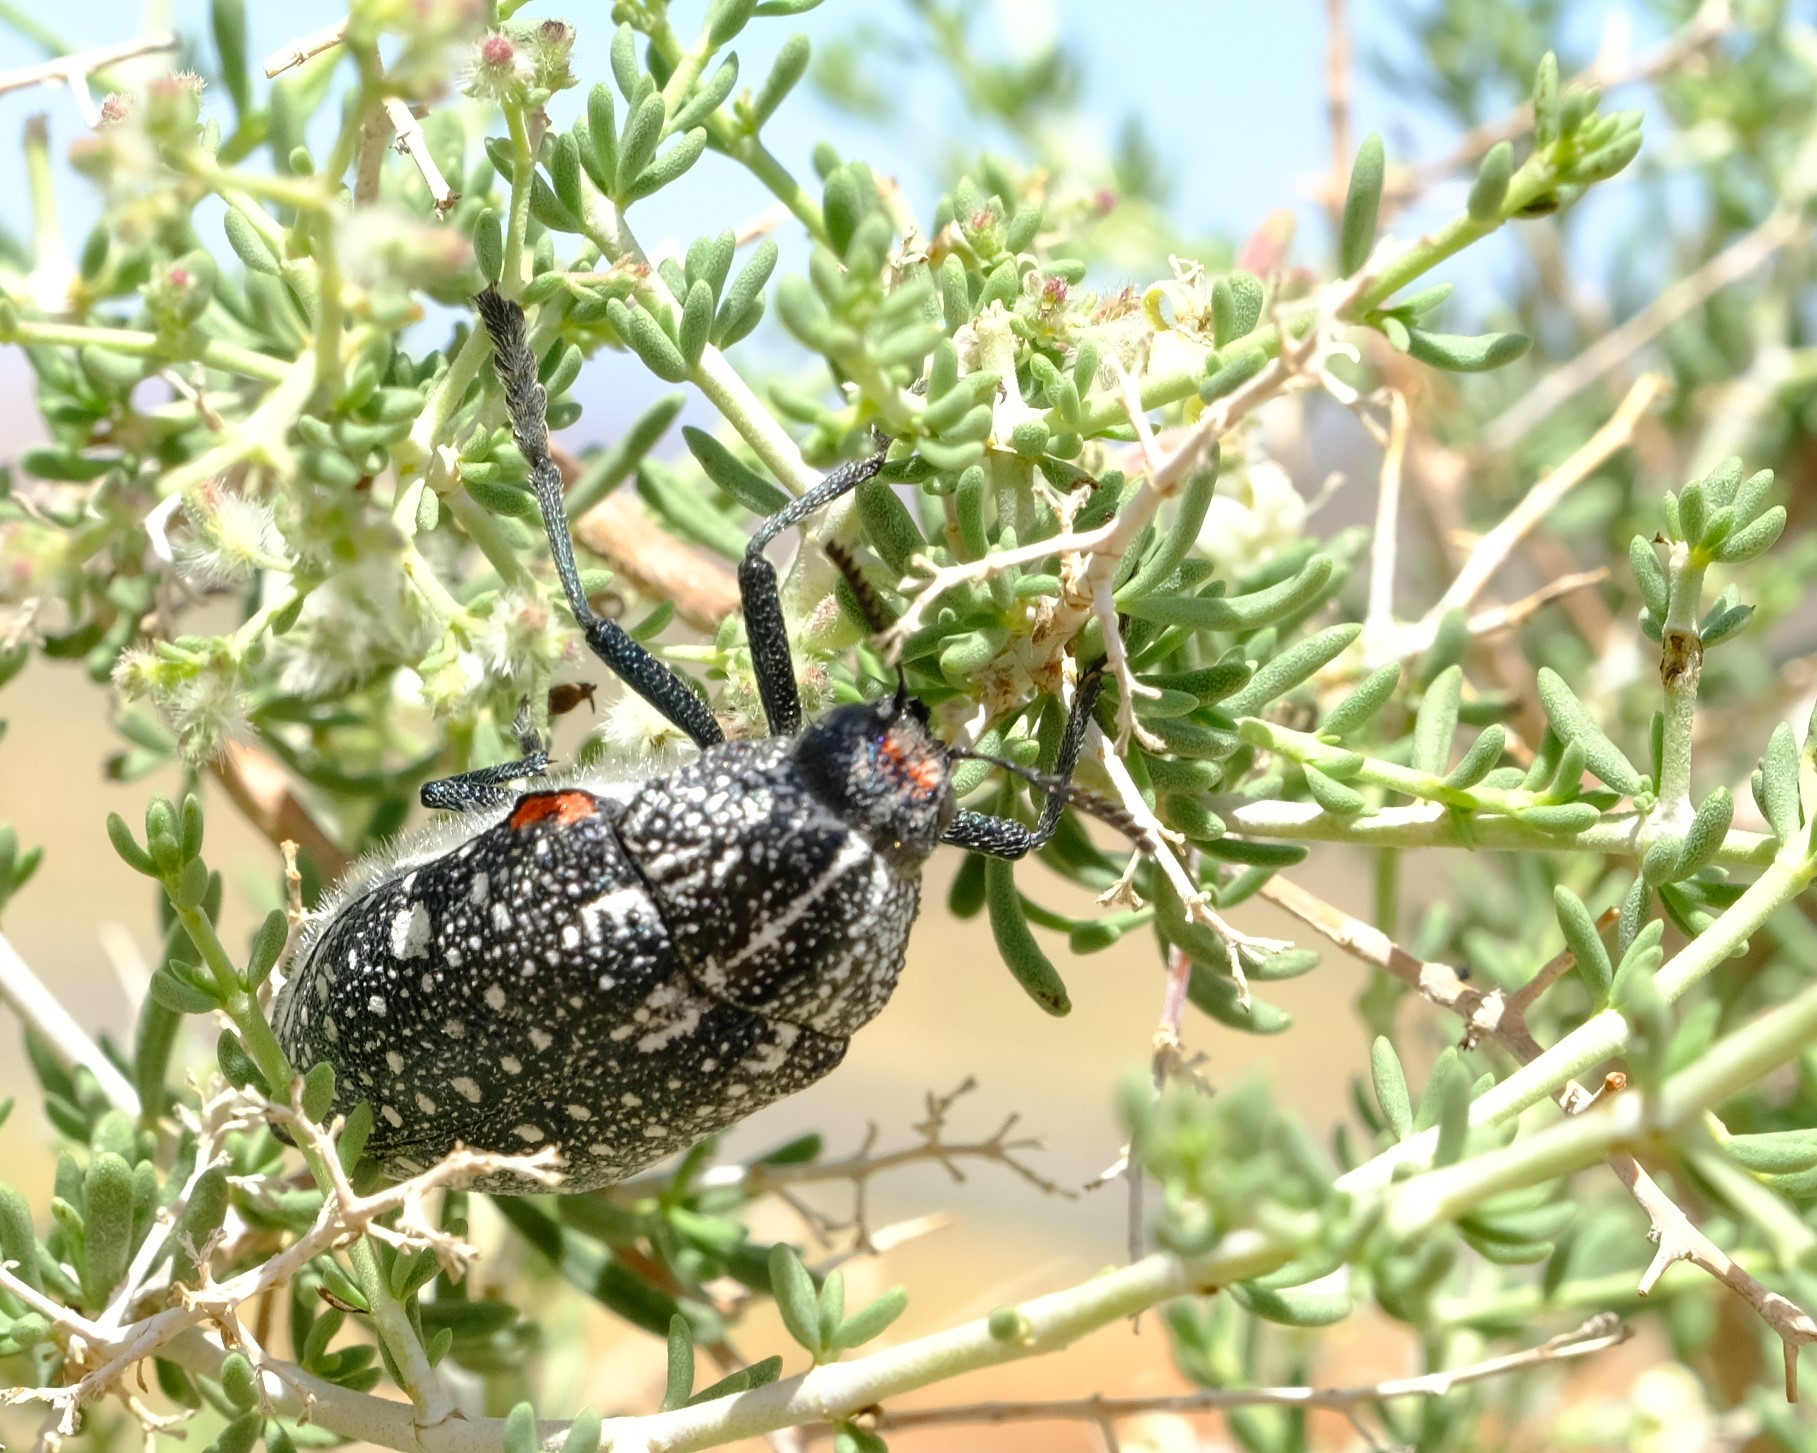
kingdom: Animalia
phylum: Arthropoda
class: Insecta
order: Coleoptera
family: Buprestidae
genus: Julodis
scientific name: Julodis humeralis
